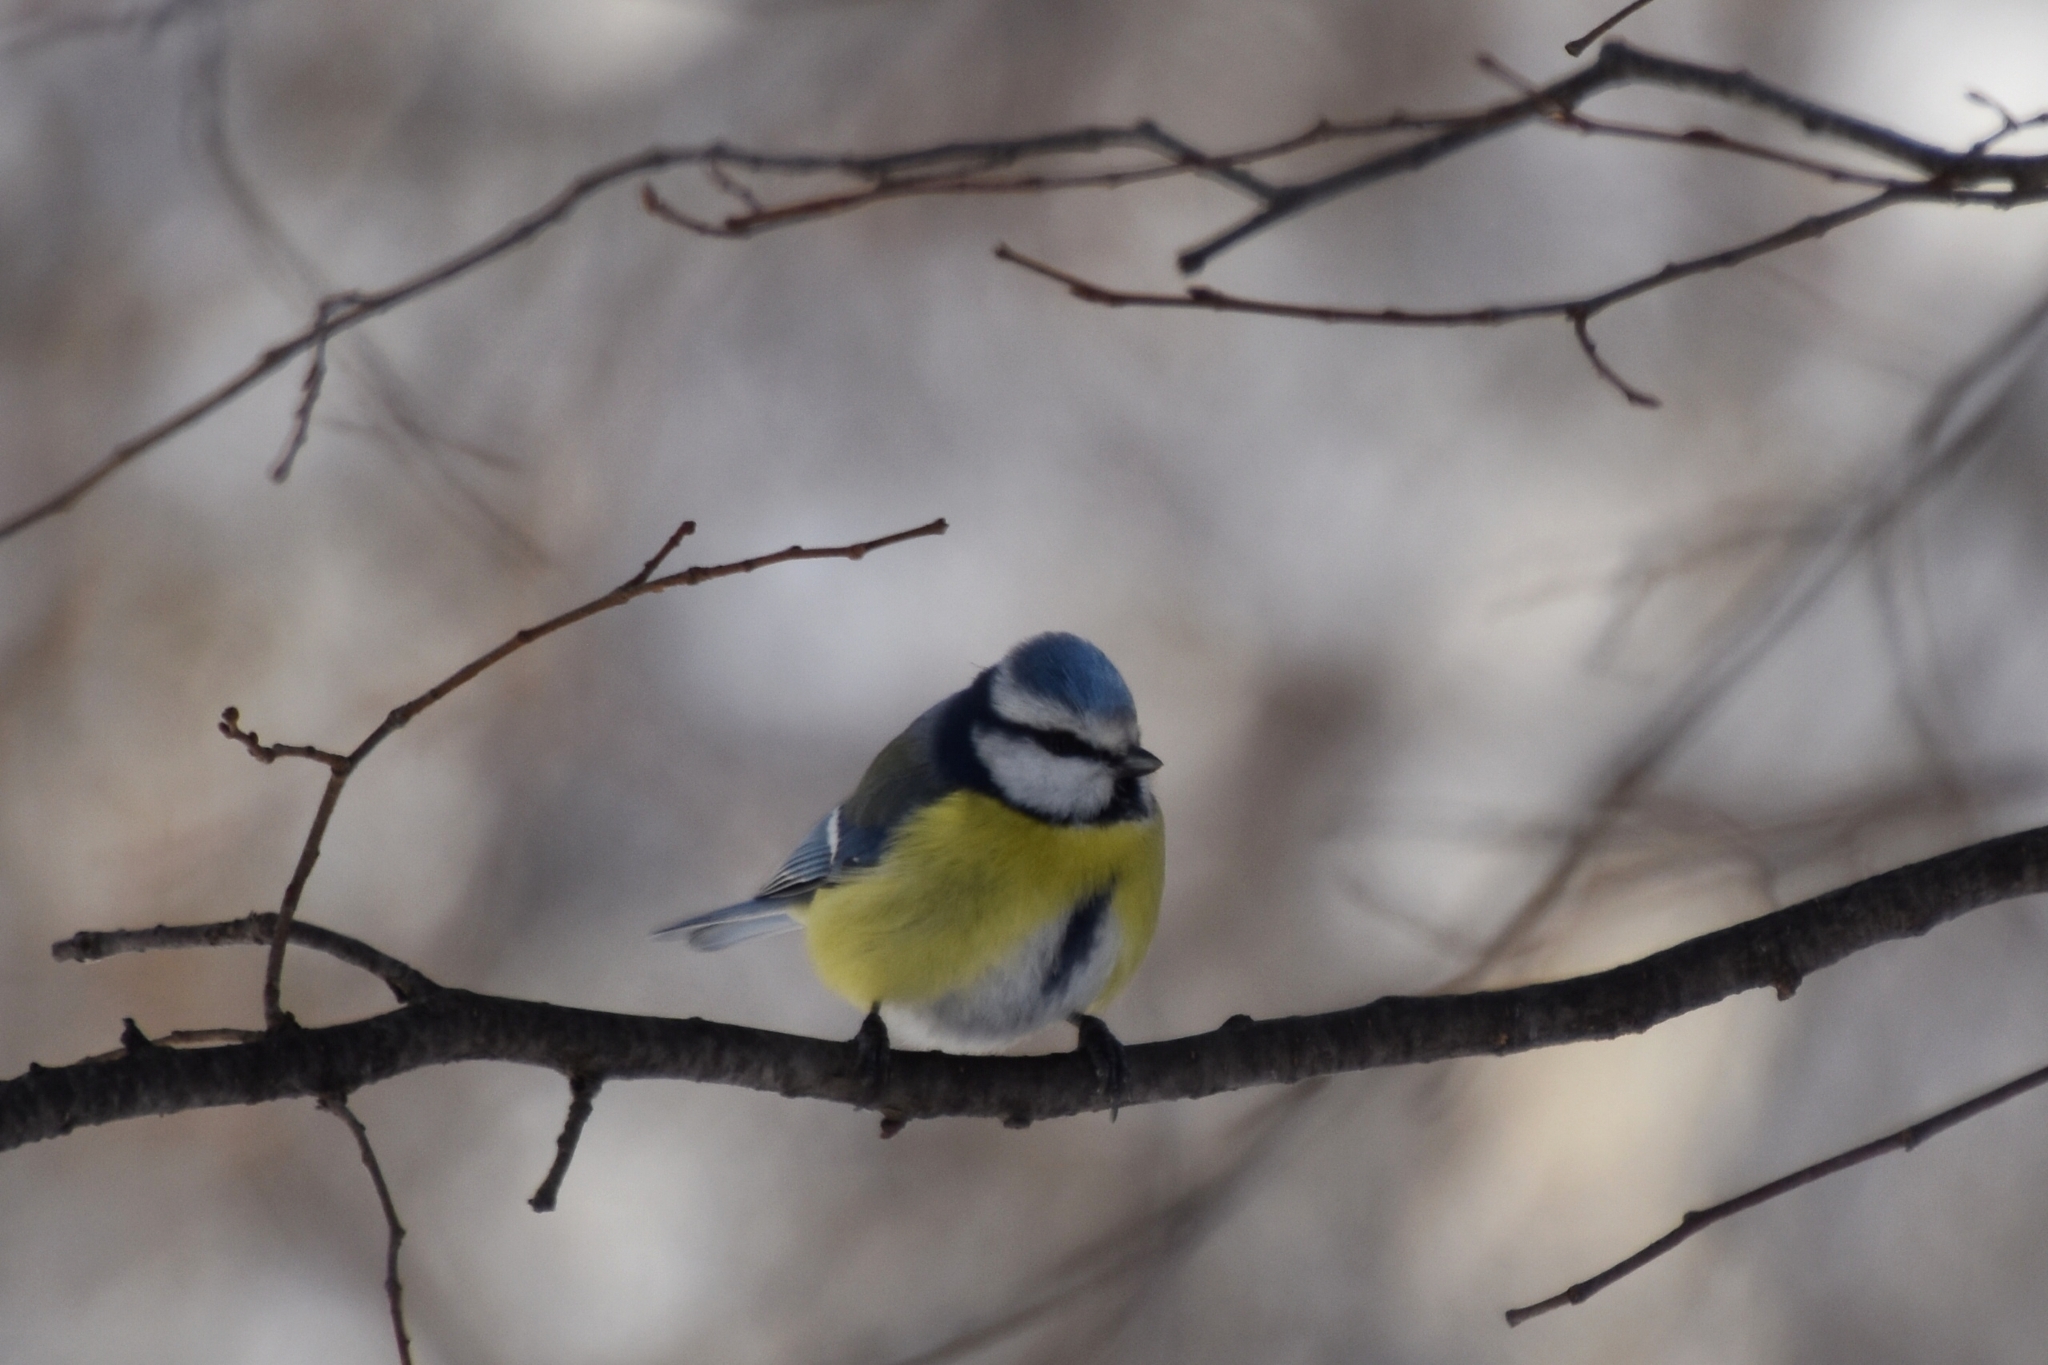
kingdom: Animalia
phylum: Chordata
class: Aves
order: Passeriformes
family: Paridae
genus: Cyanistes
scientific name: Cyanistes caeruleus
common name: Eurasian blue tit
